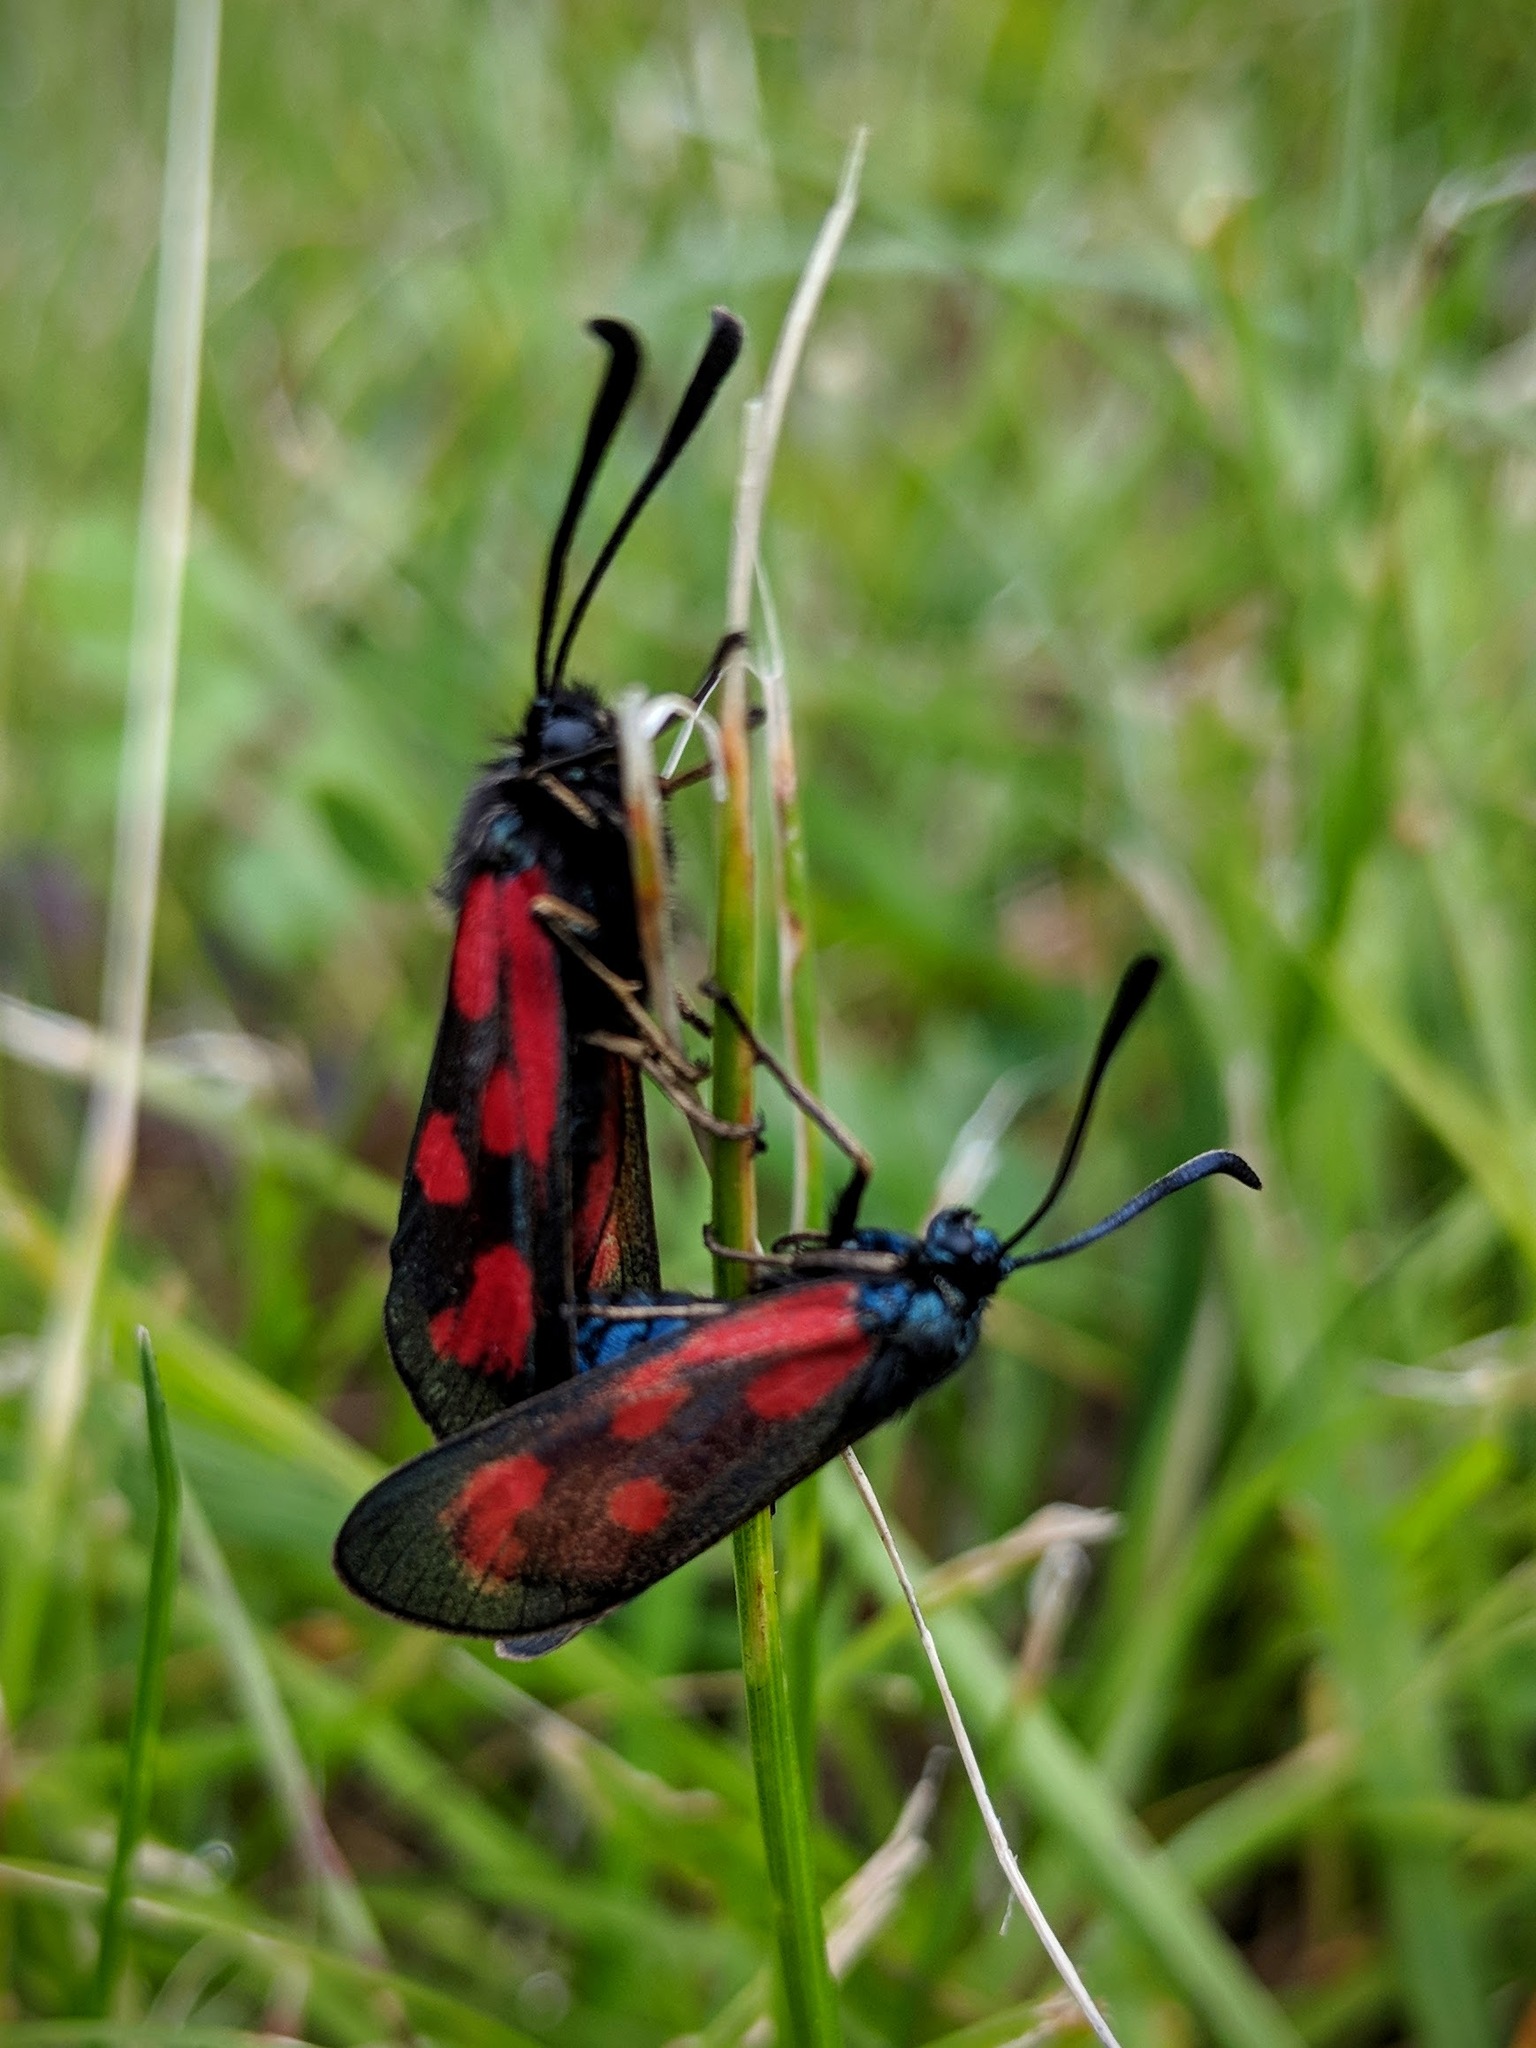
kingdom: Animalia
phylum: Arthropoda
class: Insecta
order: Lepidoptera
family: Zygaenidae
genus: Zygaena
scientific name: Zygaena loti
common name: Slender scotch burnet
